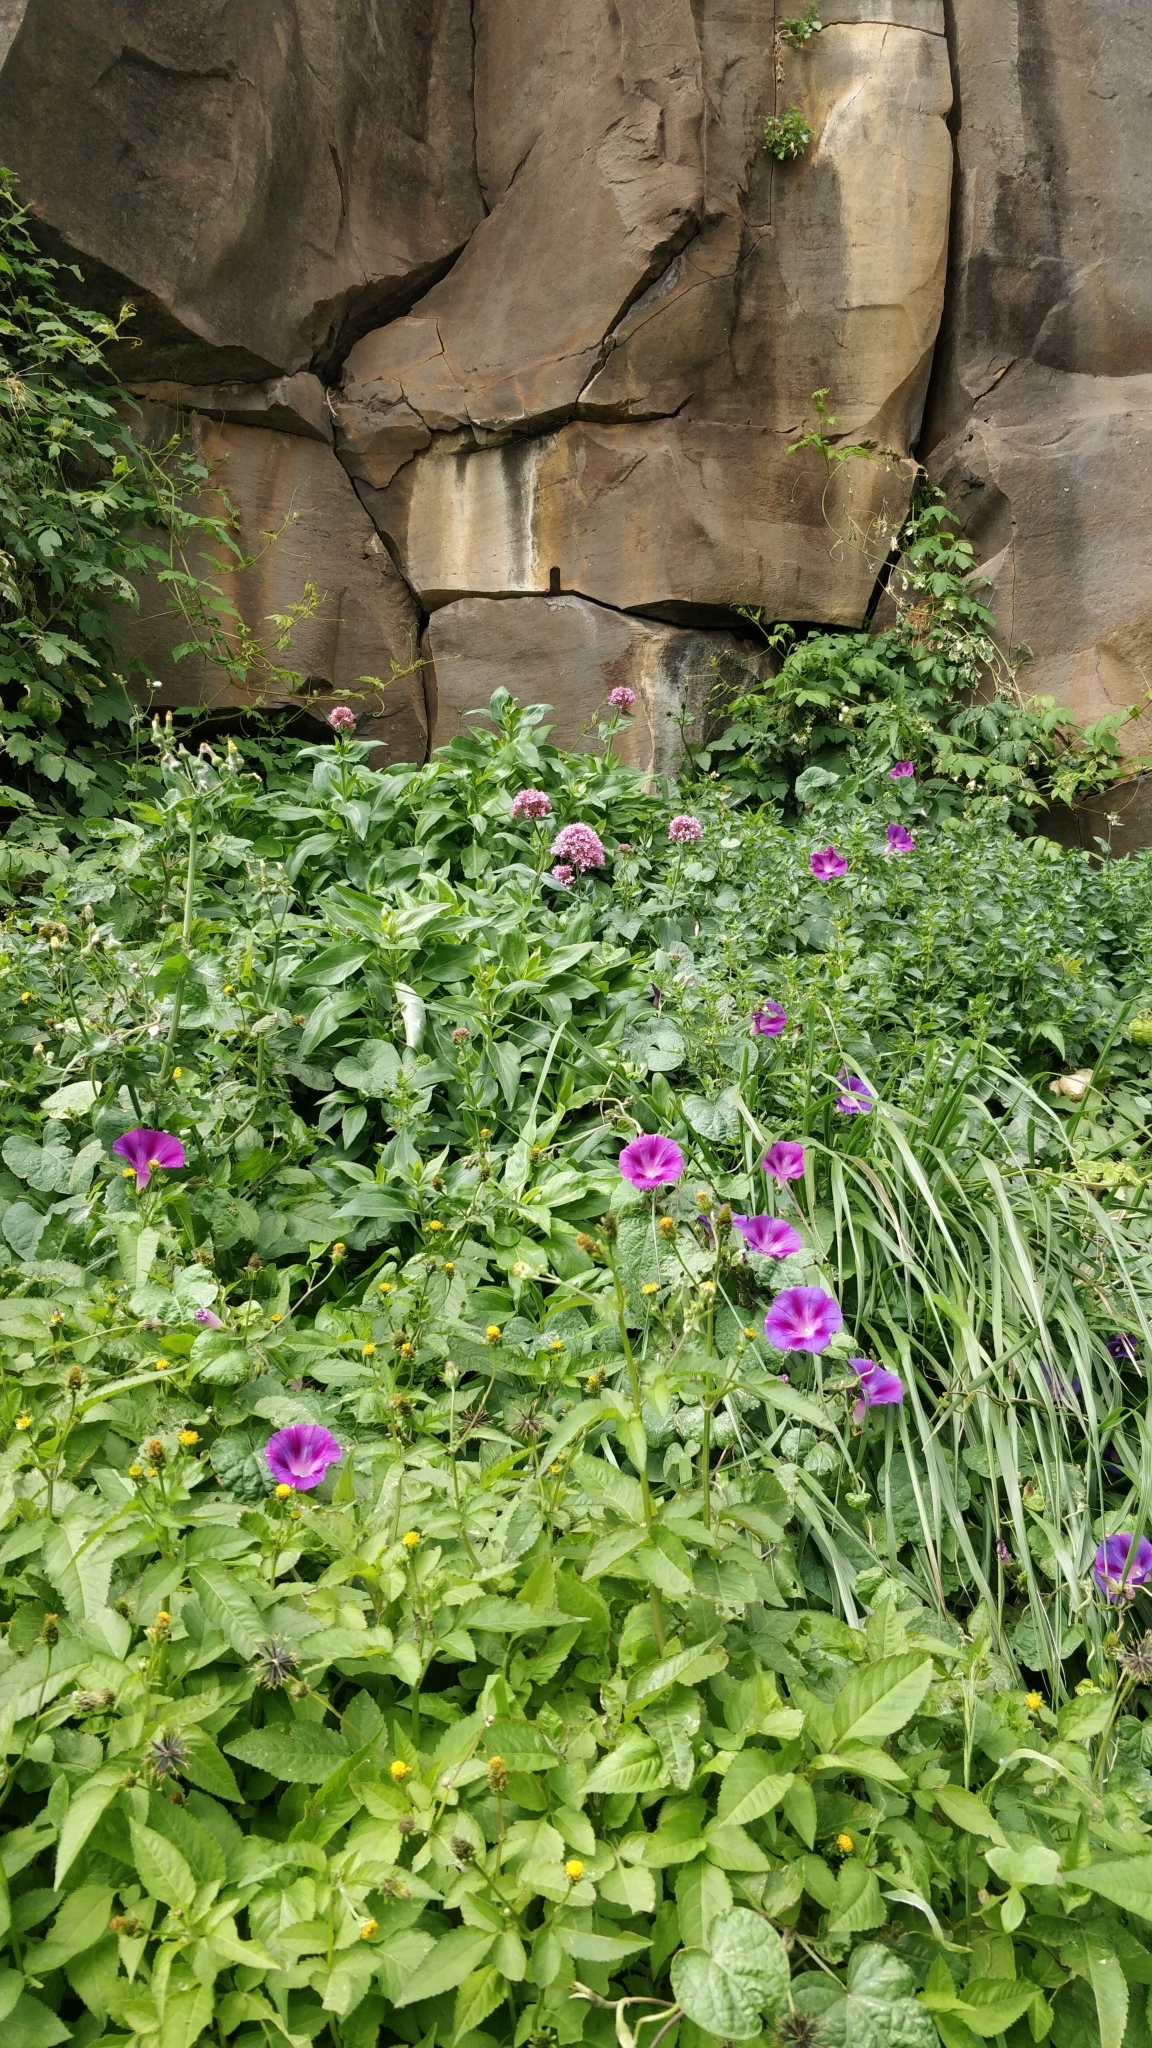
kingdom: Plantae
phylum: Tracheophyta
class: Magnoliopsida
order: Solanales
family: Convolvulaceae
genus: Ipomoea
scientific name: Ipomoea purpurea
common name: Common morning-glory
